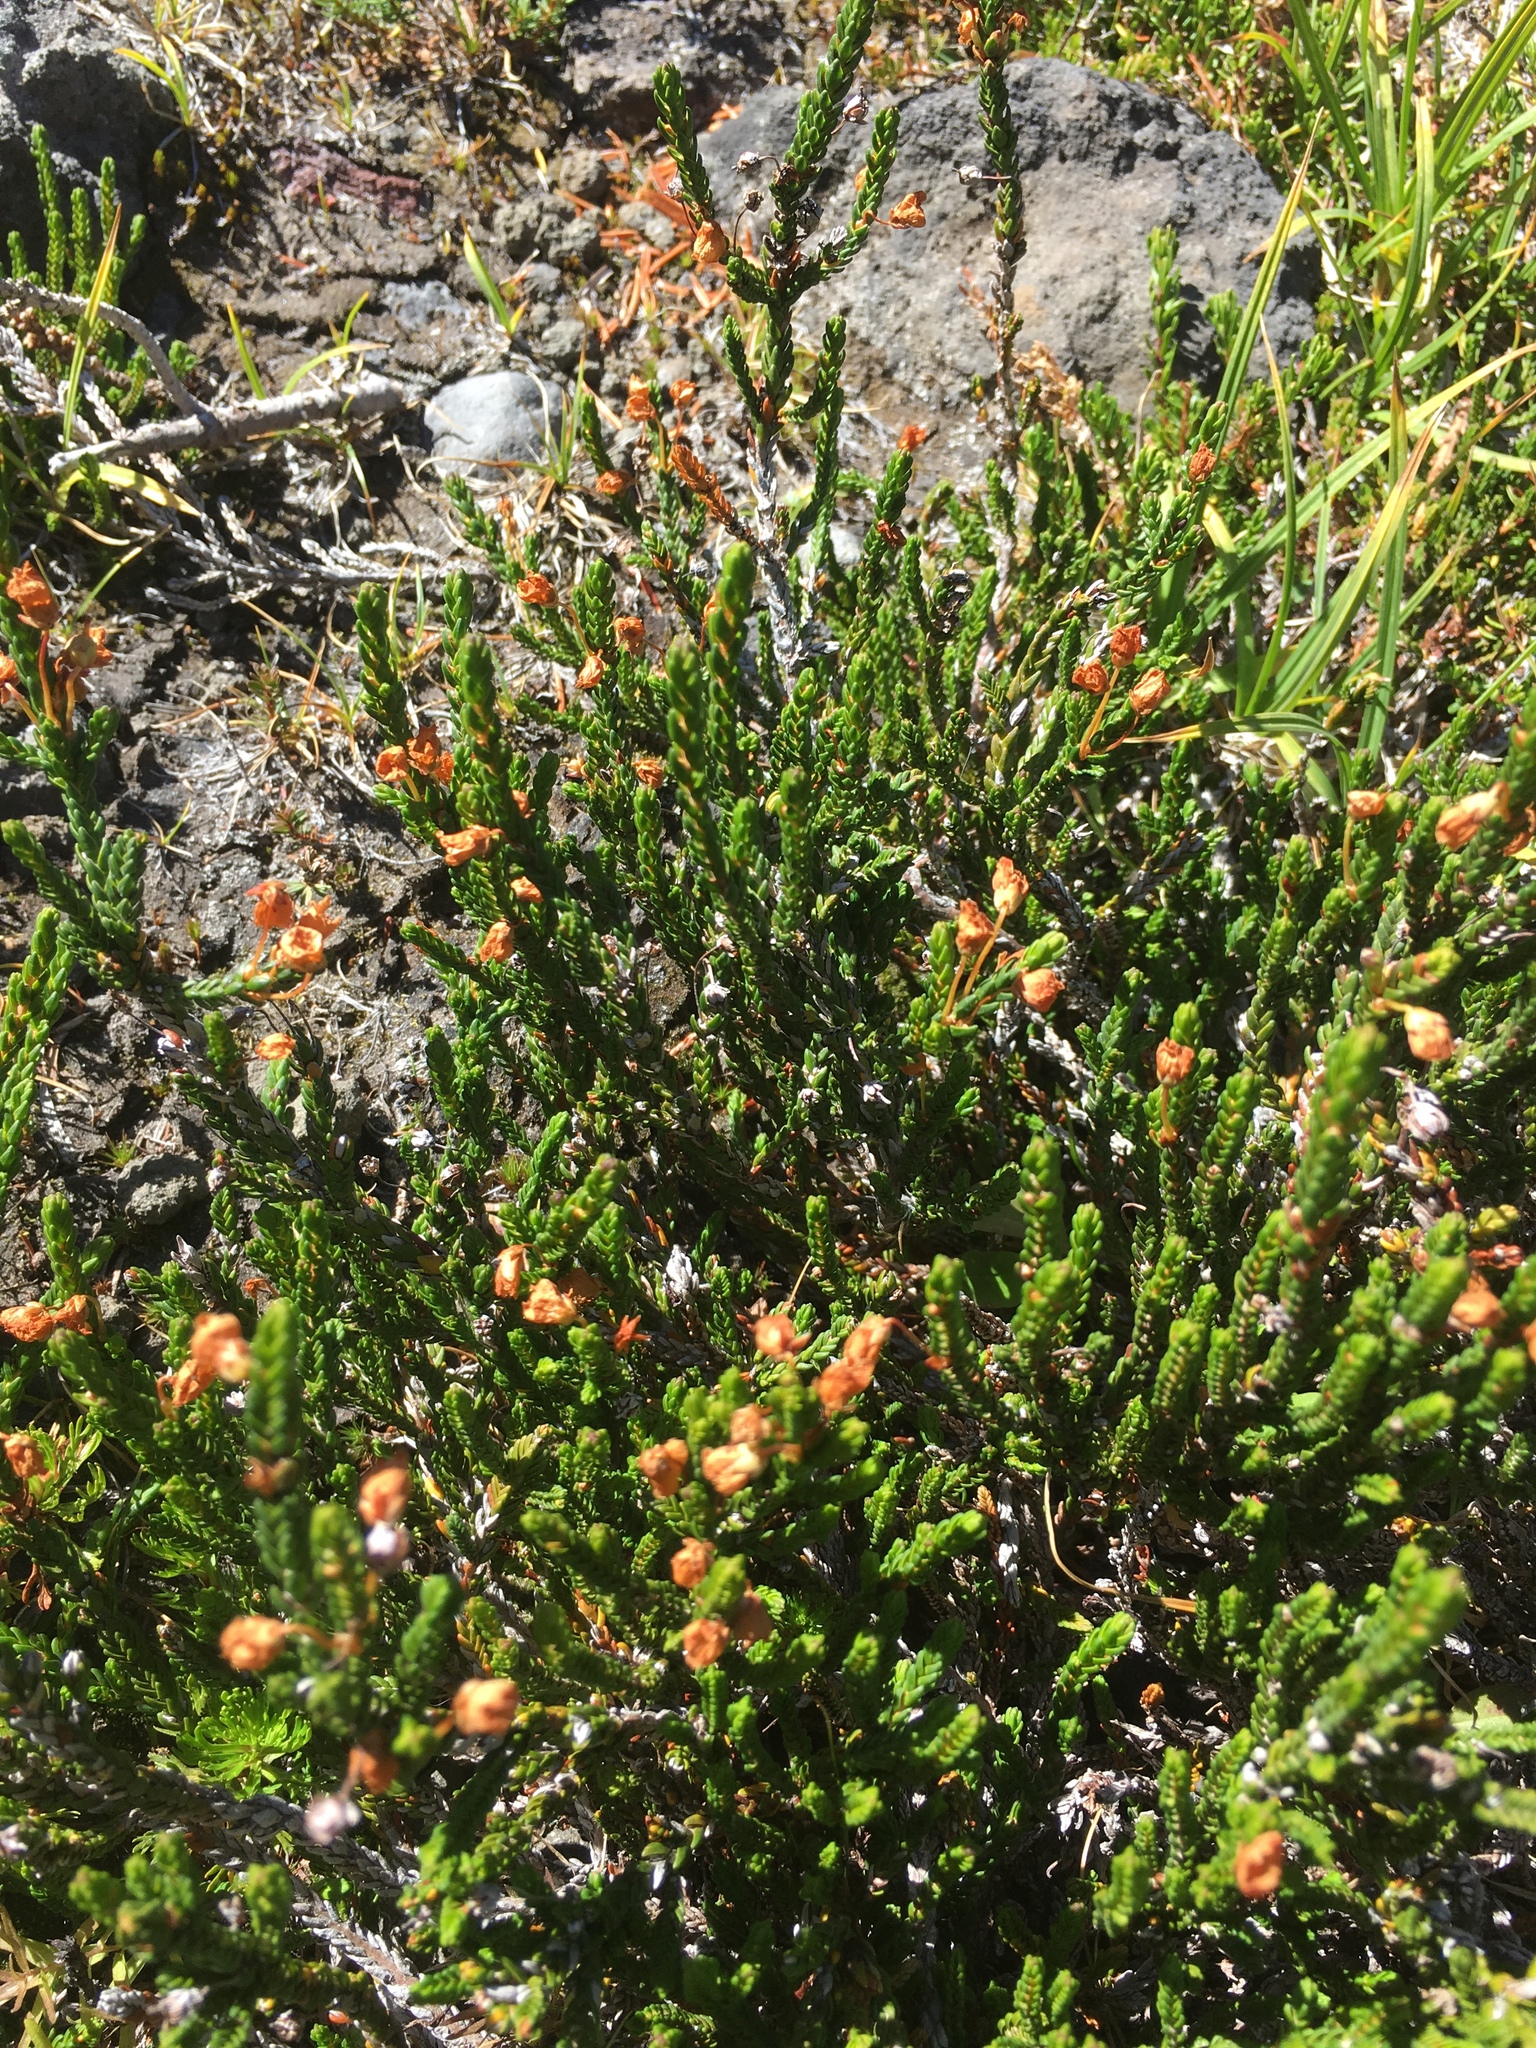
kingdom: Plantae
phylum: Tracheophyta
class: Magnoliopsida
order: Ericales
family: Ericaceae
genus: Cassiope
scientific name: Cassiope mertensiana
